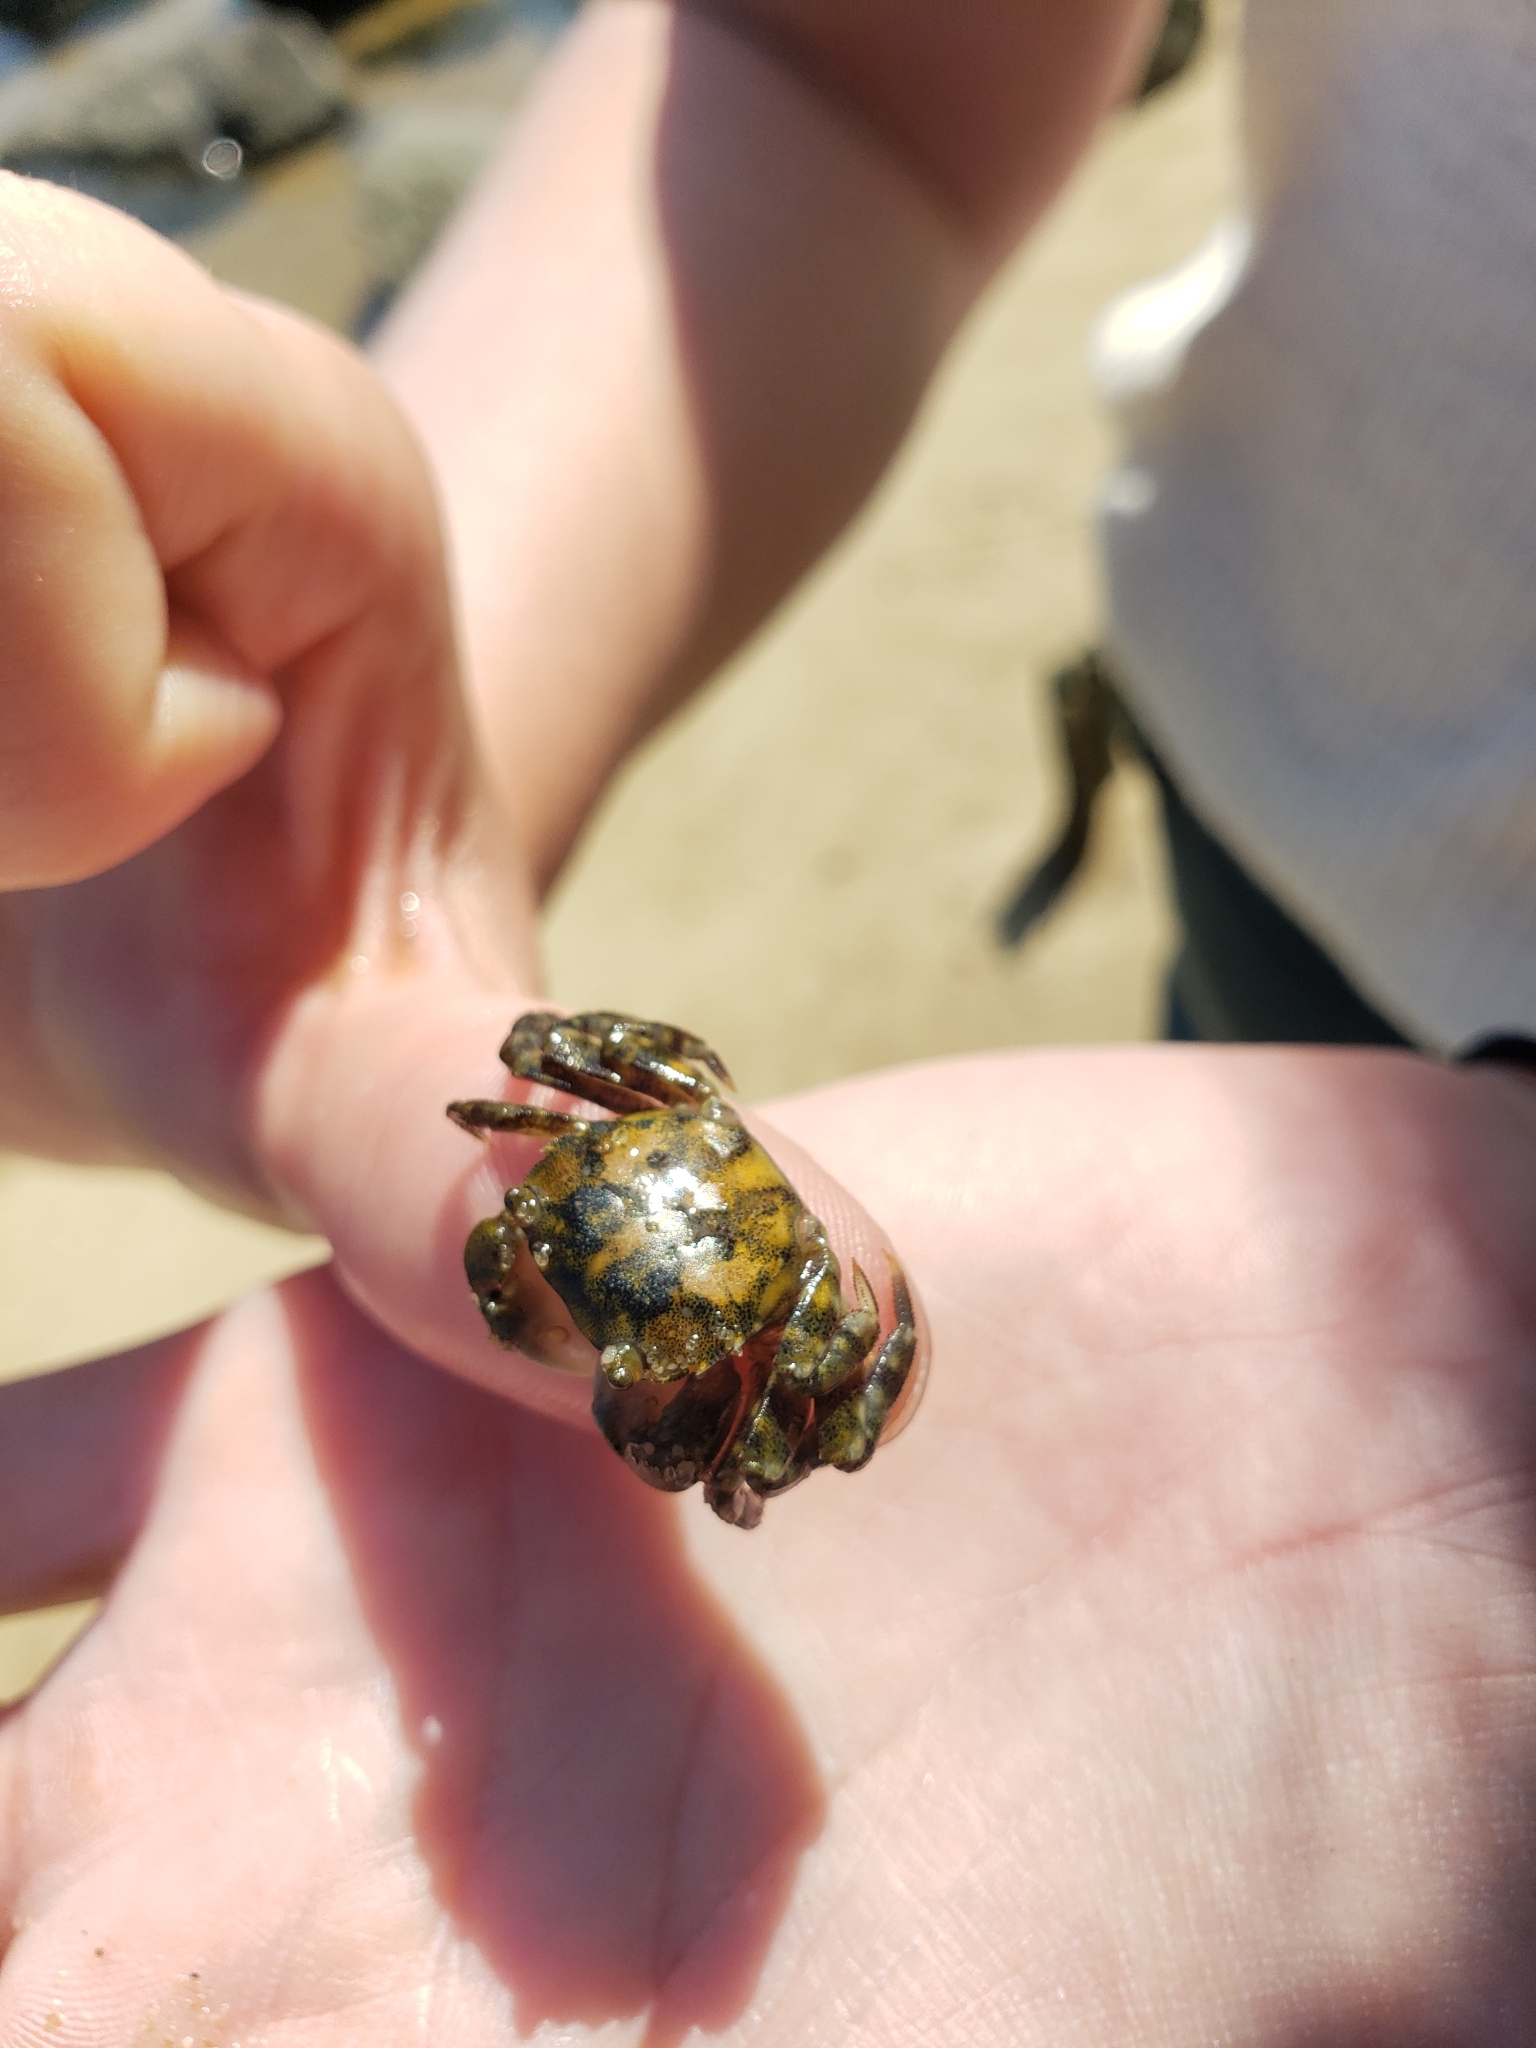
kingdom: Animalia
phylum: Arthropoda
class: Malacostraca
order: Decapoda
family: Varunidae
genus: Hemigrapsus
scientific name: Hemigrapsus sanguineus
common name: Asian shore crab
